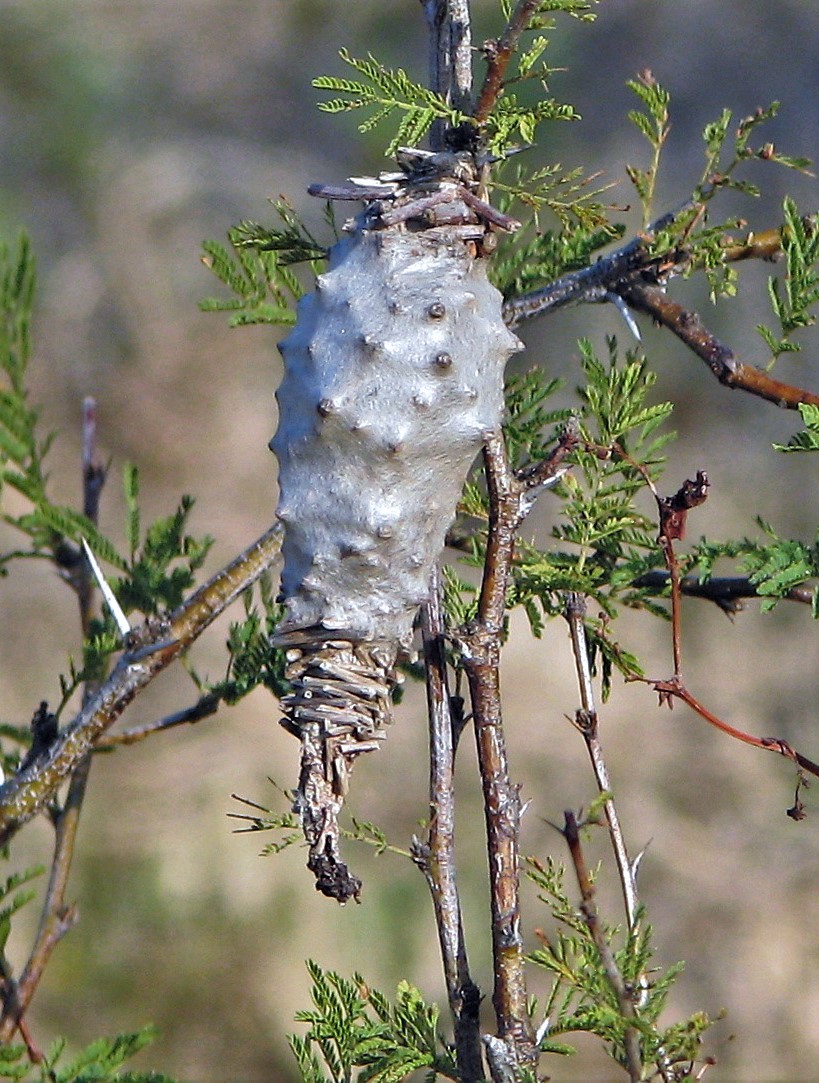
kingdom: Animalia
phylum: Arthropoda
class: Insecta
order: Lepidoptera
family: Psychidae
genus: Oiketicus
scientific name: Oiketicus
